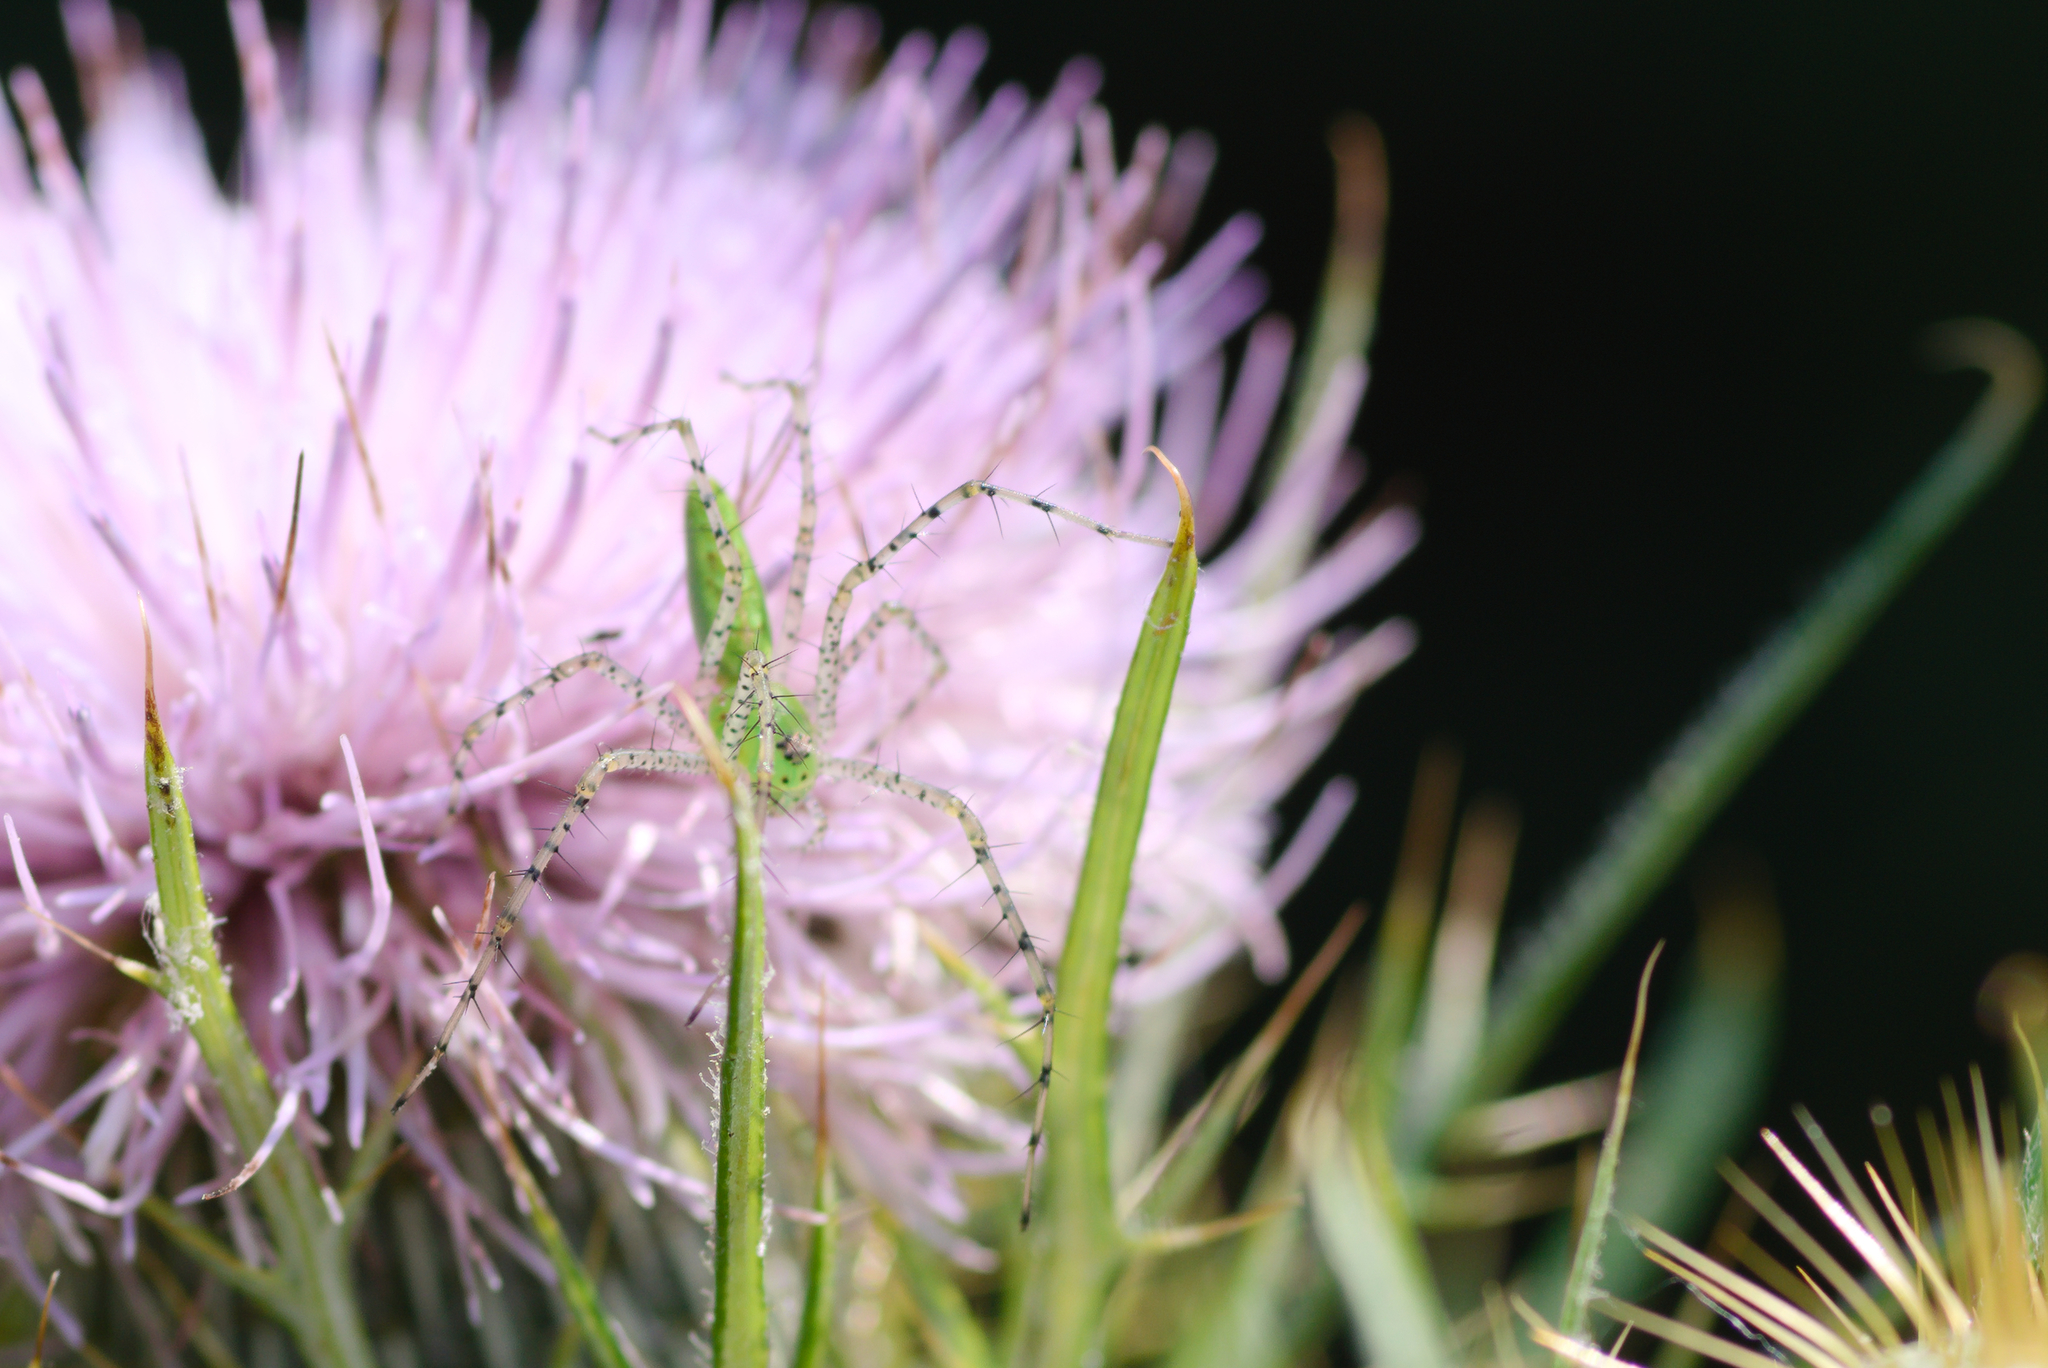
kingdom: Animalia
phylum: Arthropoda
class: Arachnida
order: Araneae
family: Oxyopidae
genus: Peucetia
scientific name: Peucetia viridans
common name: Lynx spiders
